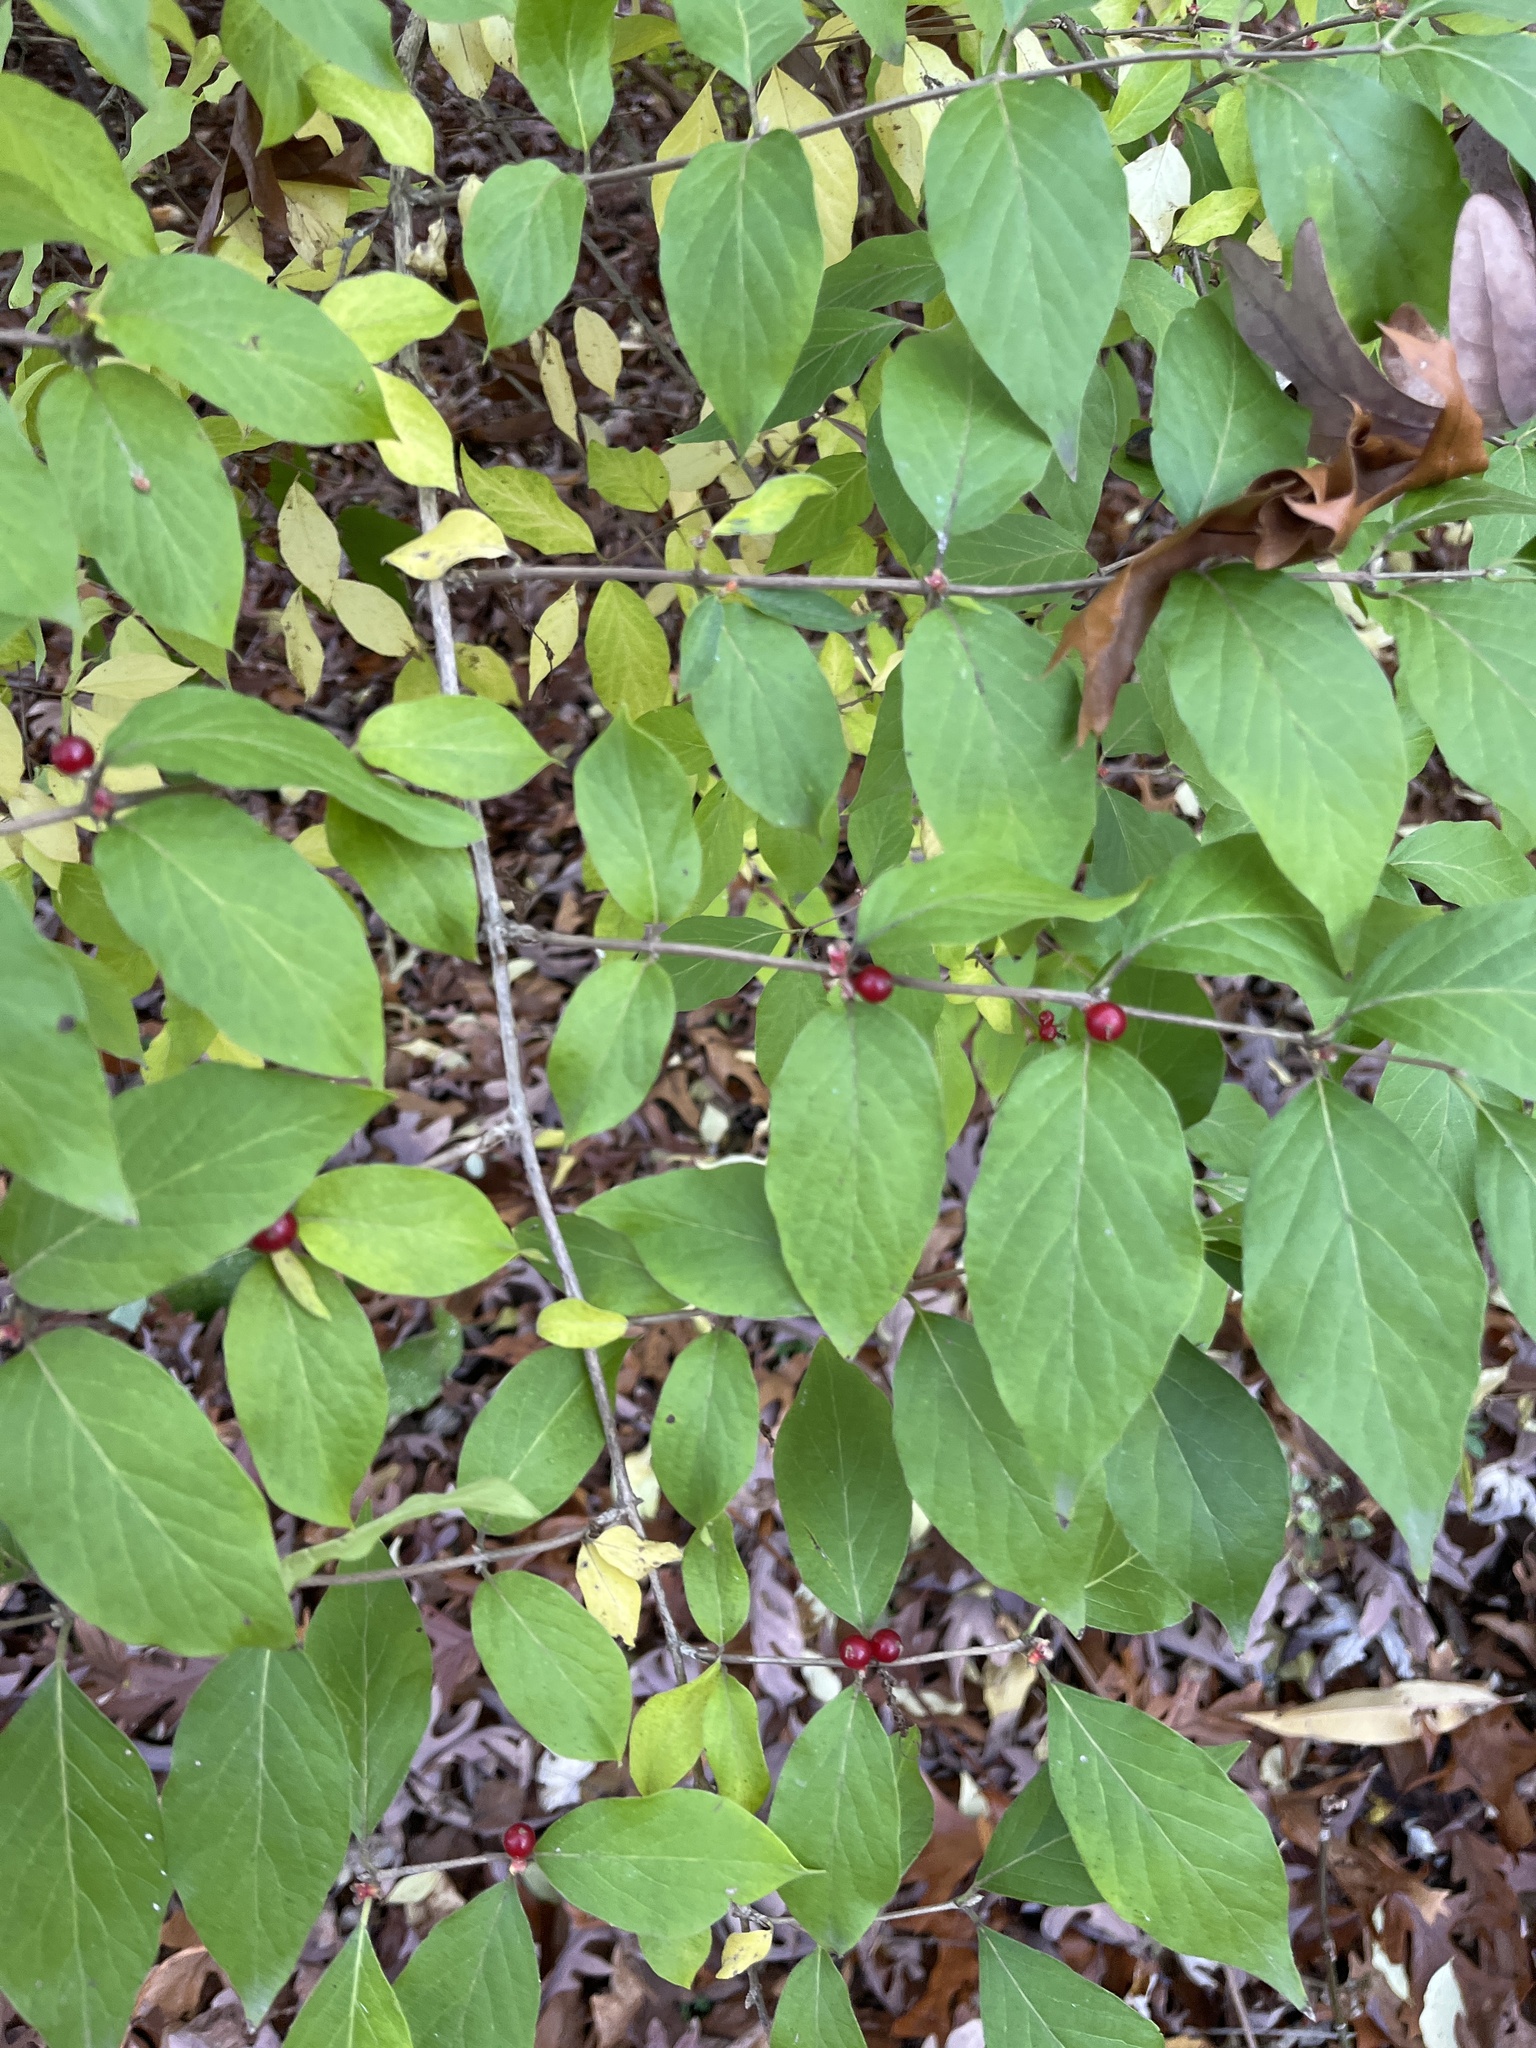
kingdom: Plantae
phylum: Tracheophyta
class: Magnoliopsida
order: Dipsacales
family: Caprifoliaceae
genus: Lonicera
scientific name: Lonicera maackii
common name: Amur honeysuckle
